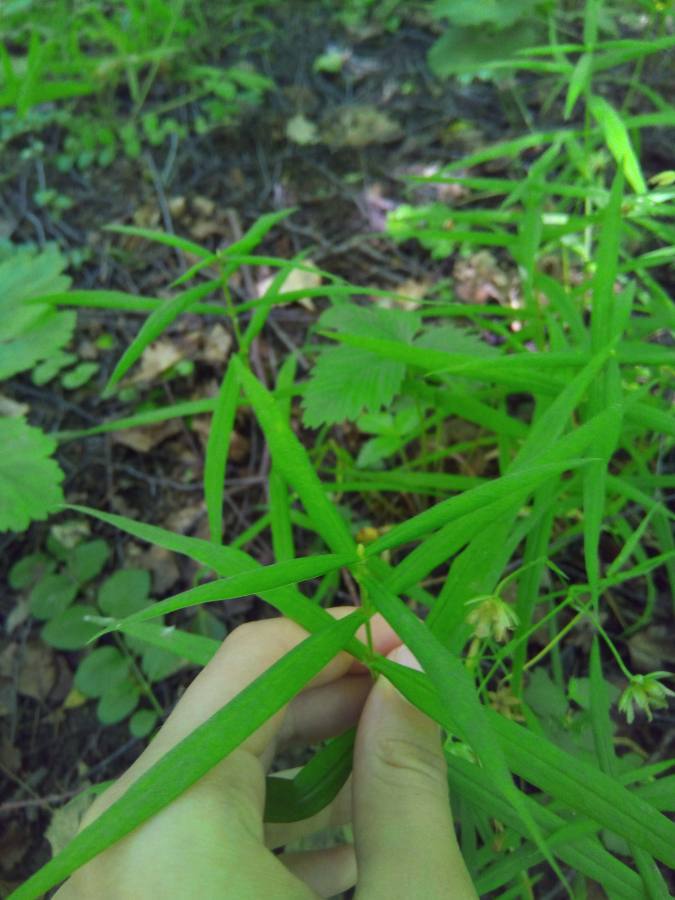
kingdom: Plantae
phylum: Tracheophyta
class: Magnoliopsida
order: Caryophyllales
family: Caryophyllaceae
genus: Rabelera
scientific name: Rabelera holostea
